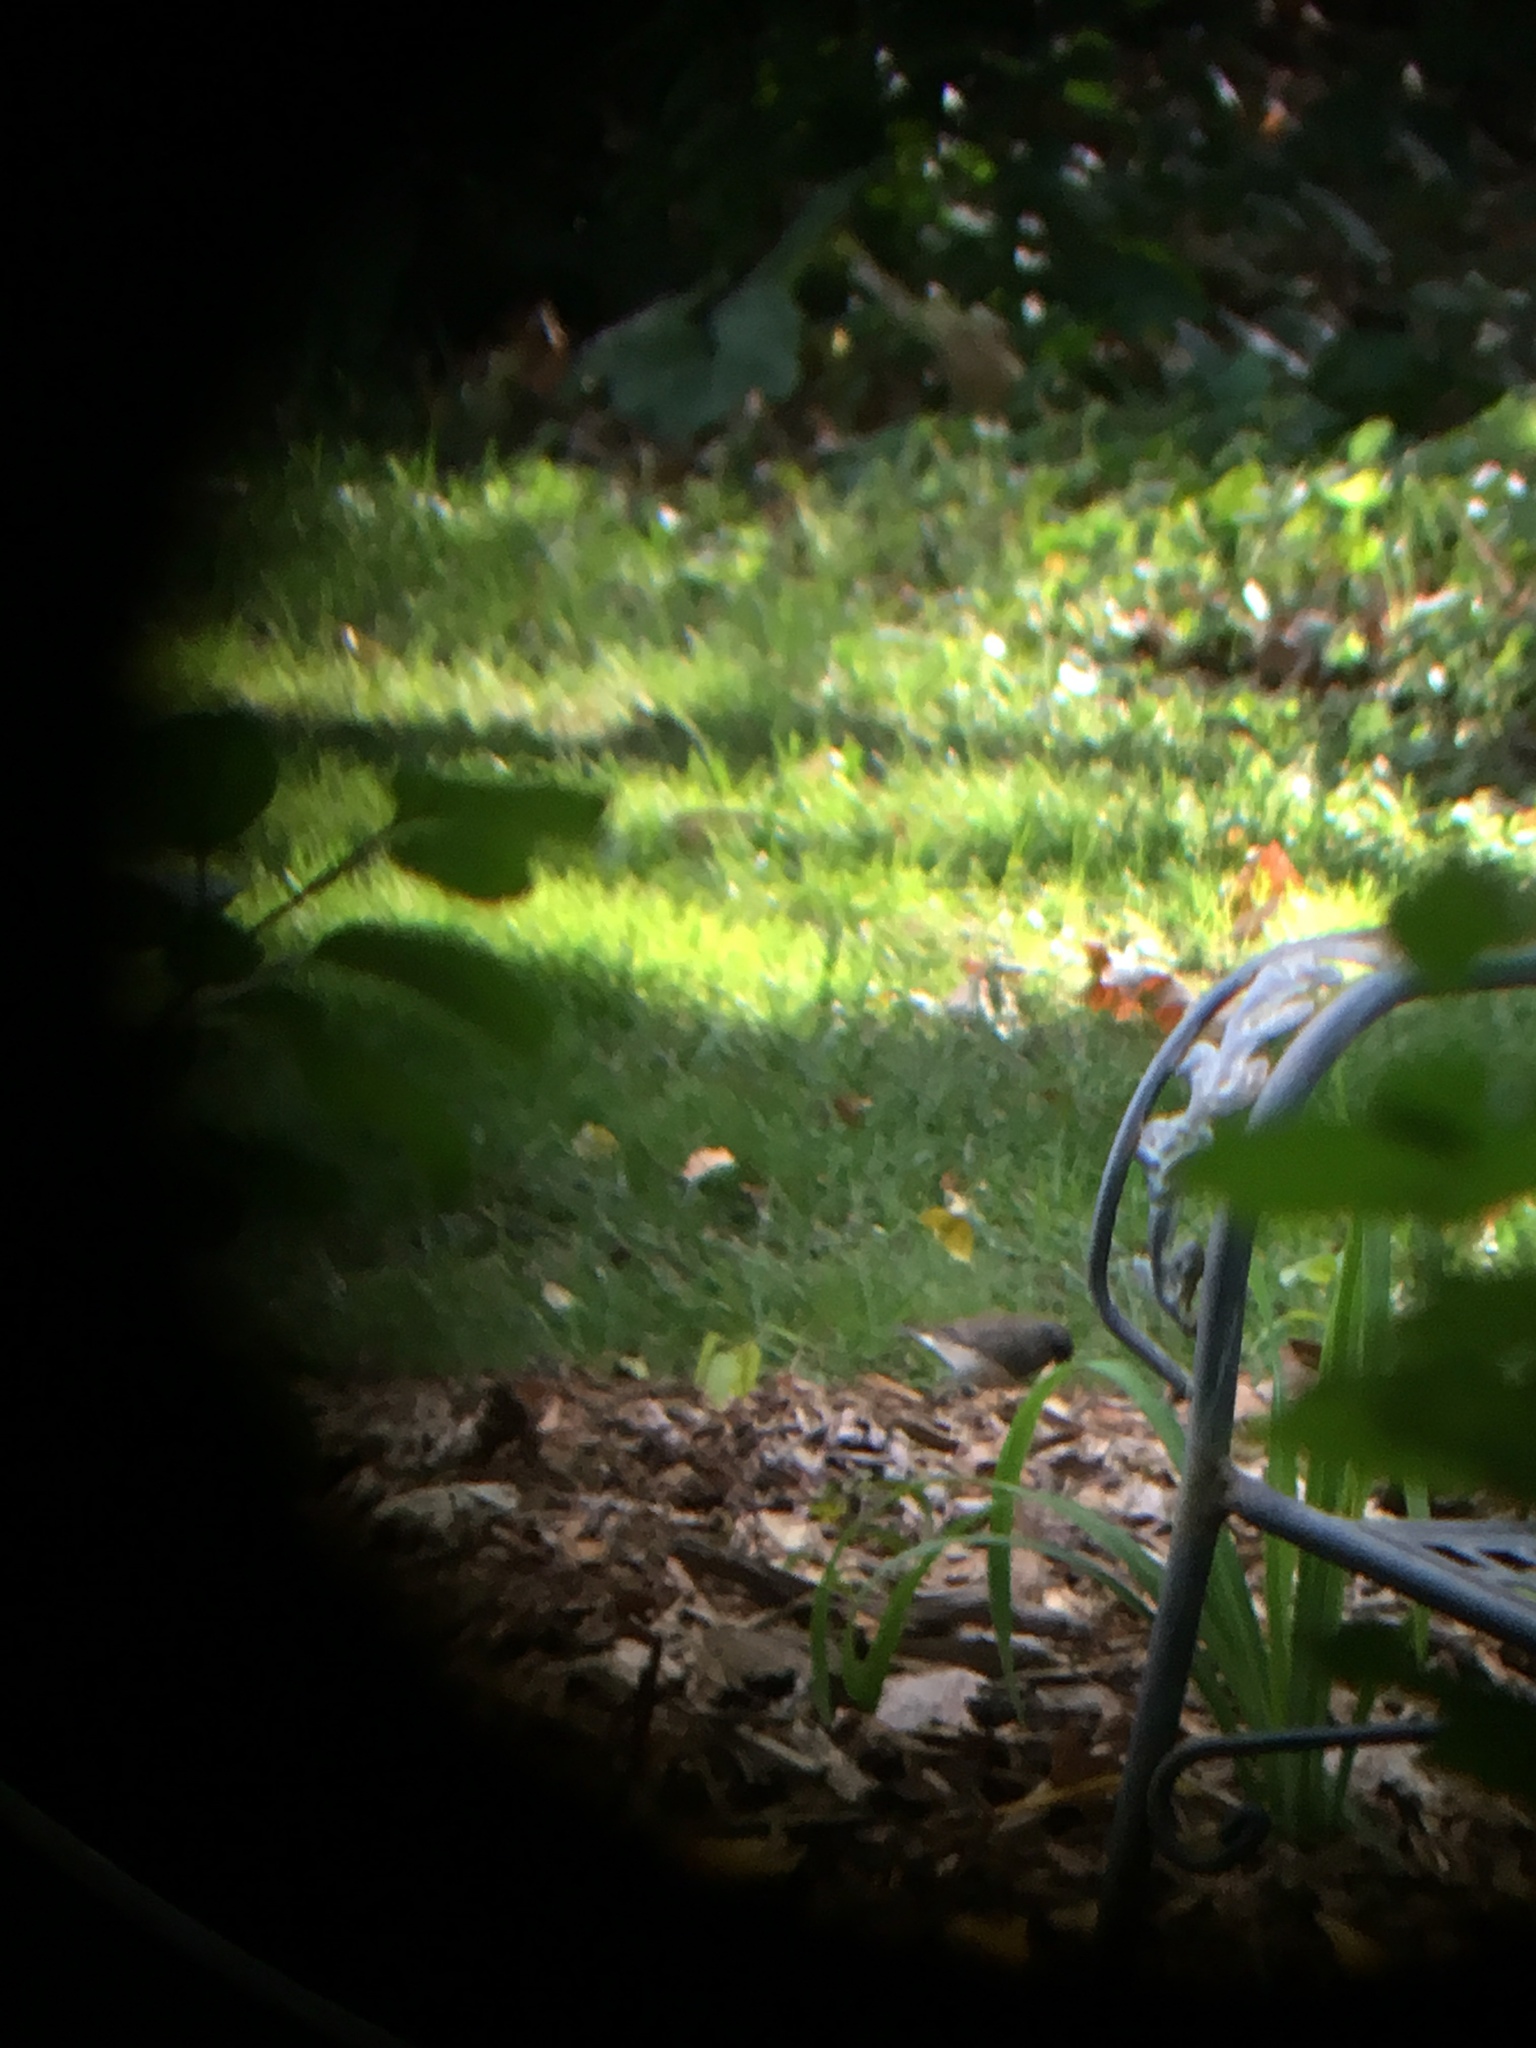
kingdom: Animalia
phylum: Chordata
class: Aves
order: Passeriformes
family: Passerellidae
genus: Junco
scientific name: Junco hyemalis
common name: Dark-eyed junco
